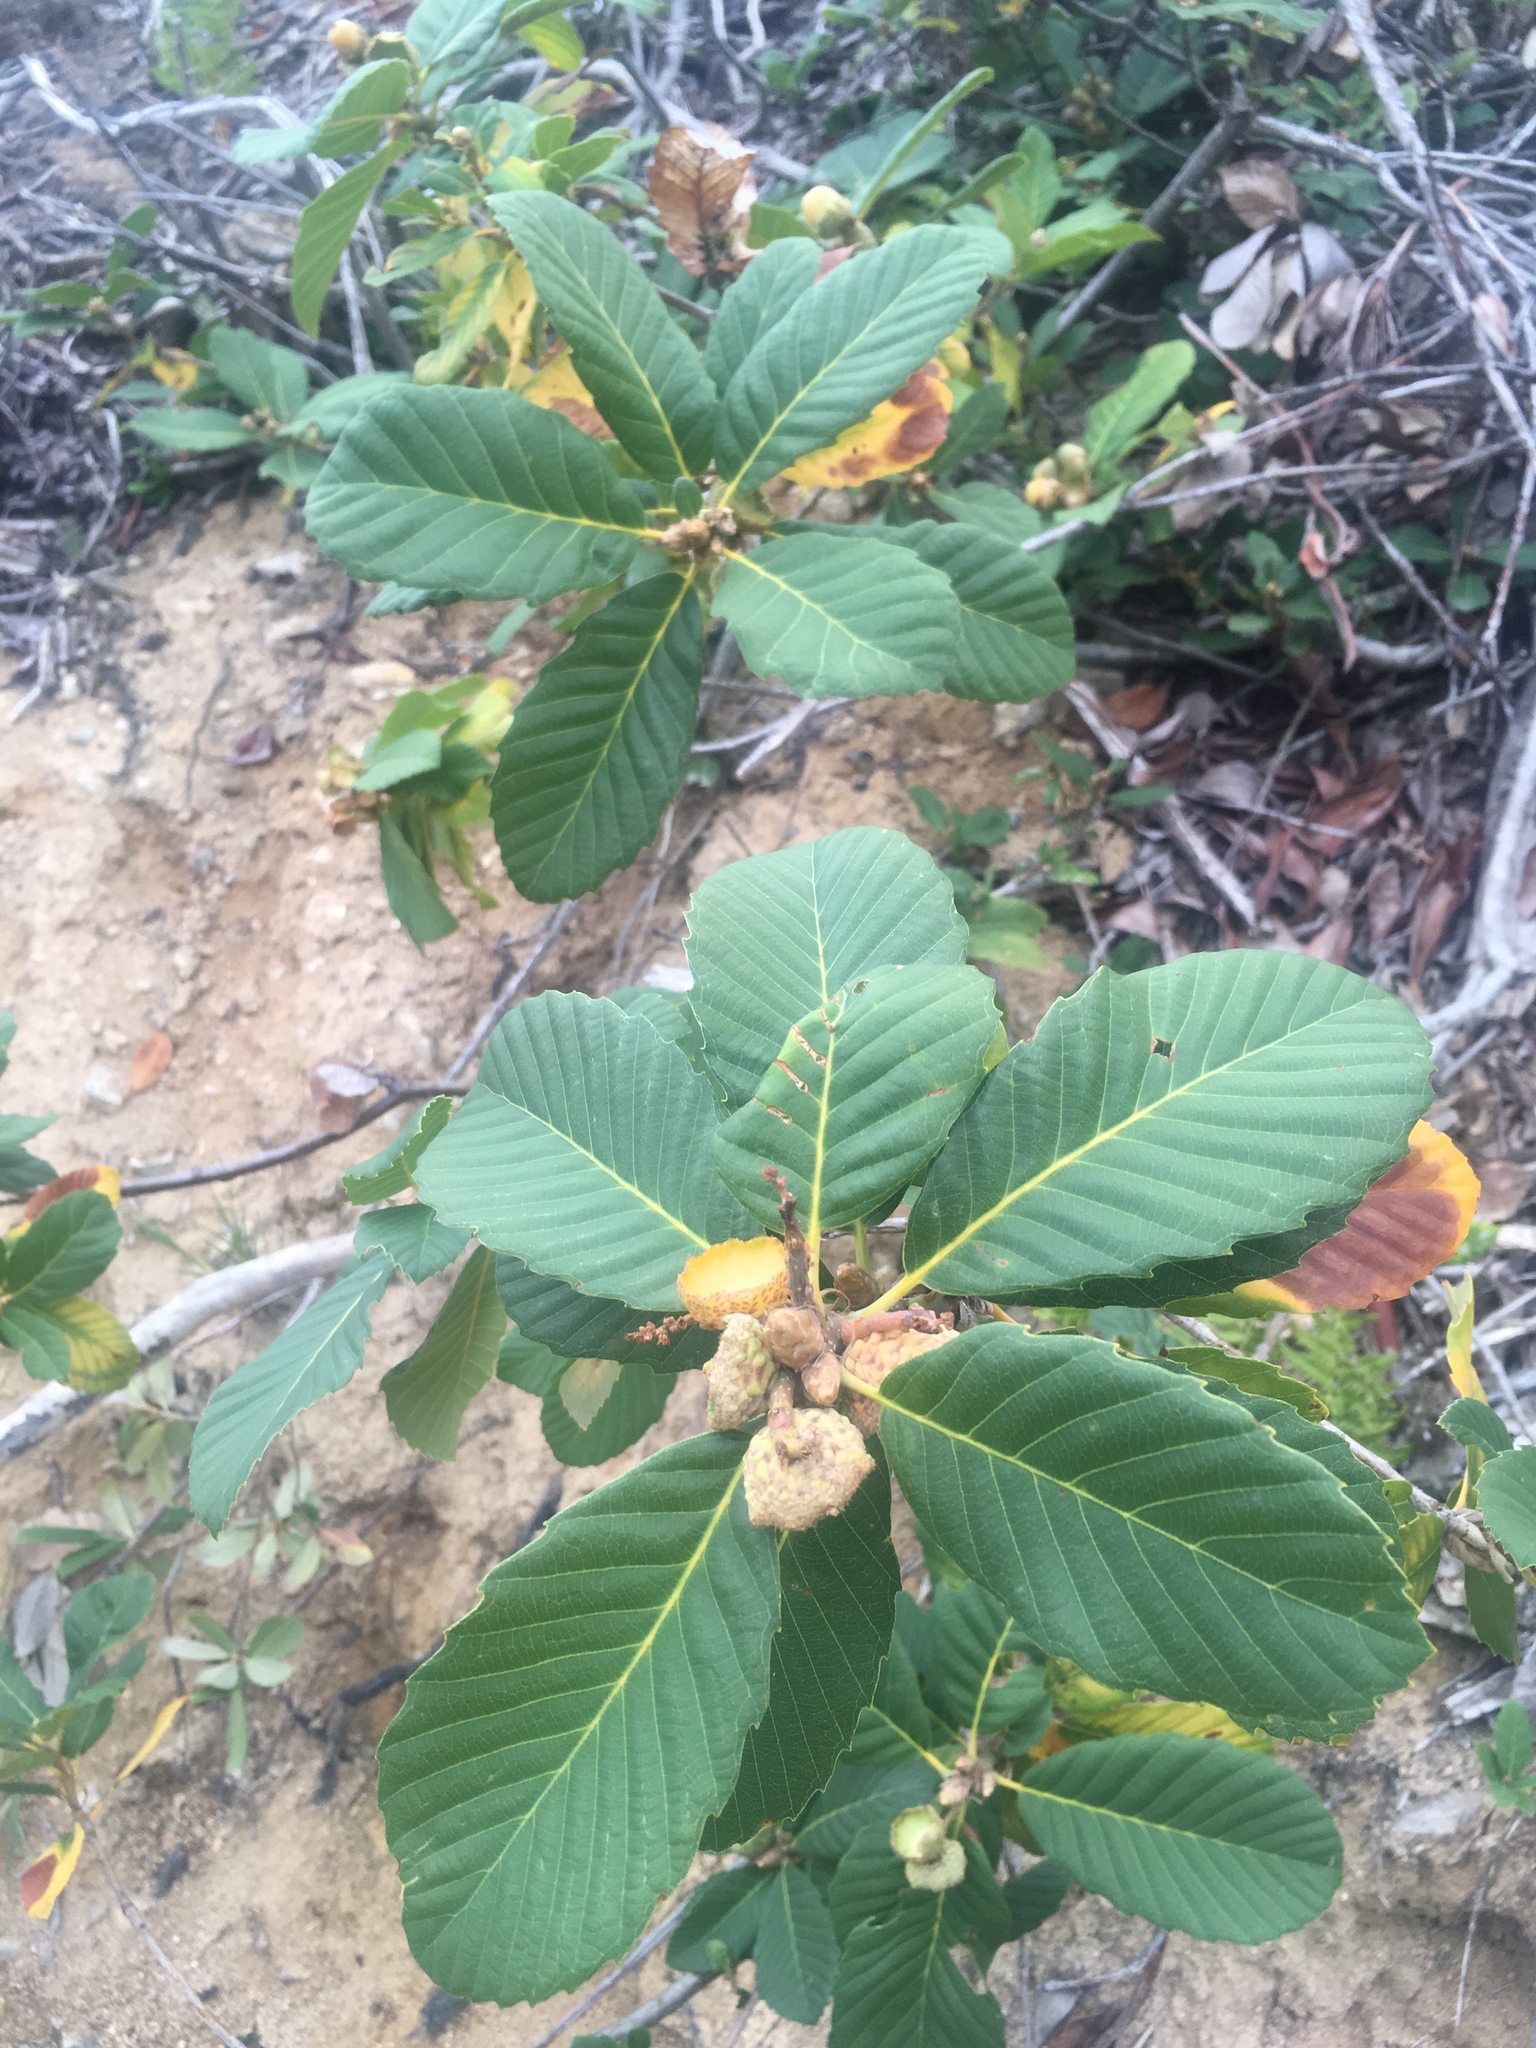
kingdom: Plantae
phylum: Tracheophyta
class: Magnoliopsida
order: Fagales
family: Fagaceae
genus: Quercus
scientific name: Quercus sadleriana
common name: Deer oak
